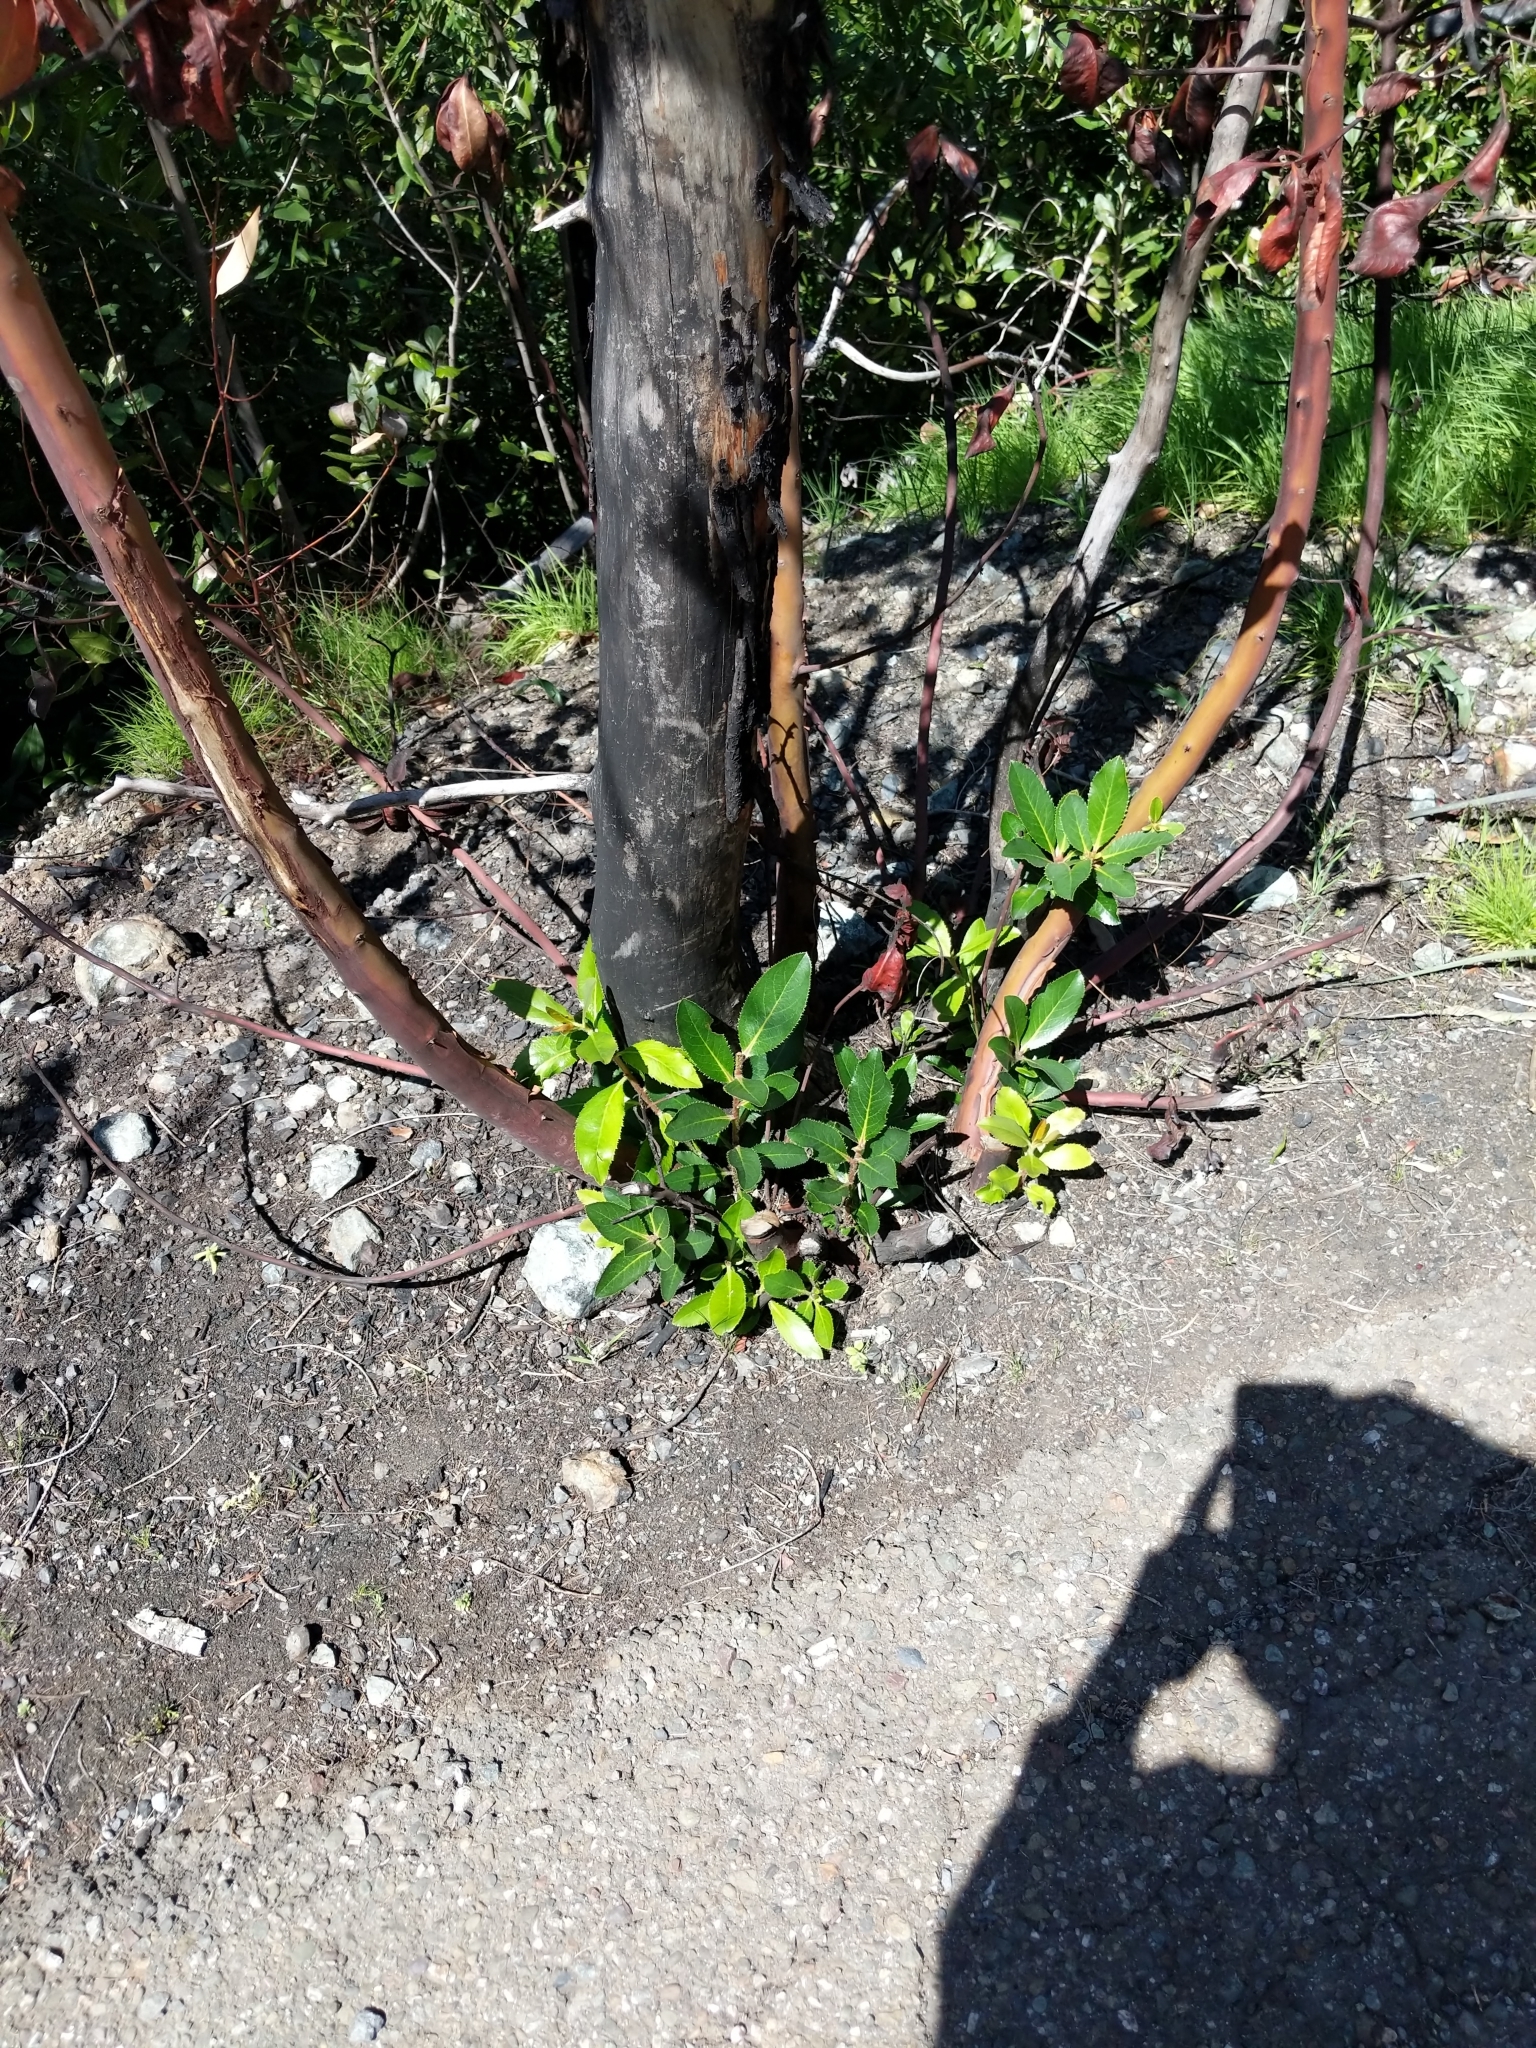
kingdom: Plantae
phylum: Tracheophyta
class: Magnoliopsida
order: Ericales
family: Ericaceae
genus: Arbutus
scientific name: Arbutus menziesii
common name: Pacific madrone
